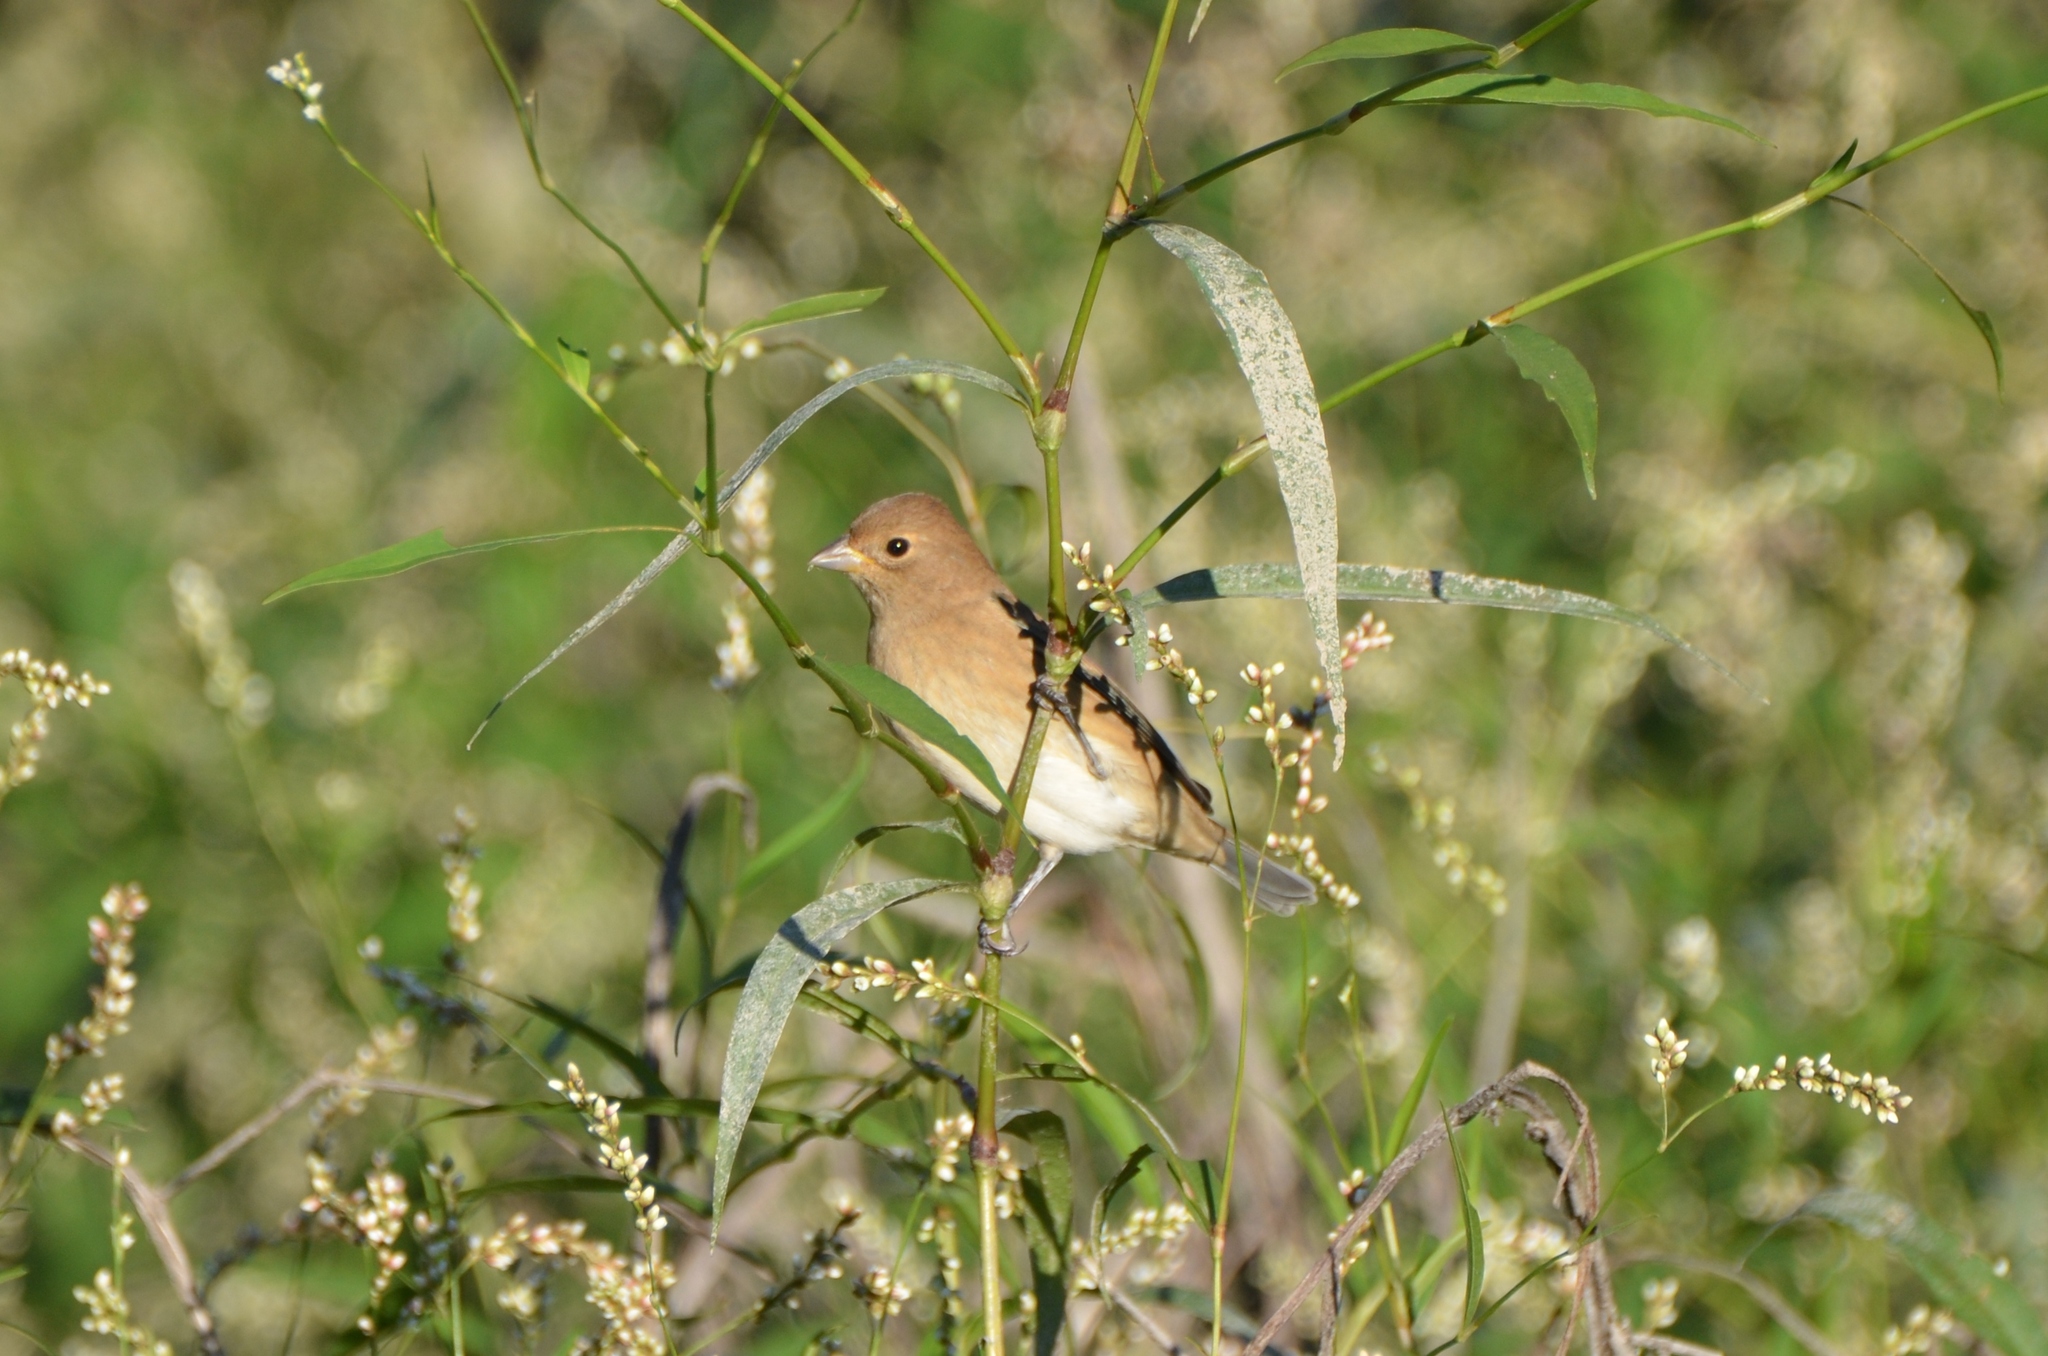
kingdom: Animalia
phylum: Chordata
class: Aves
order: Passeriformes
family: Cardinalidae
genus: Passerina
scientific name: Passerina cyanea
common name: Indigo bunting
